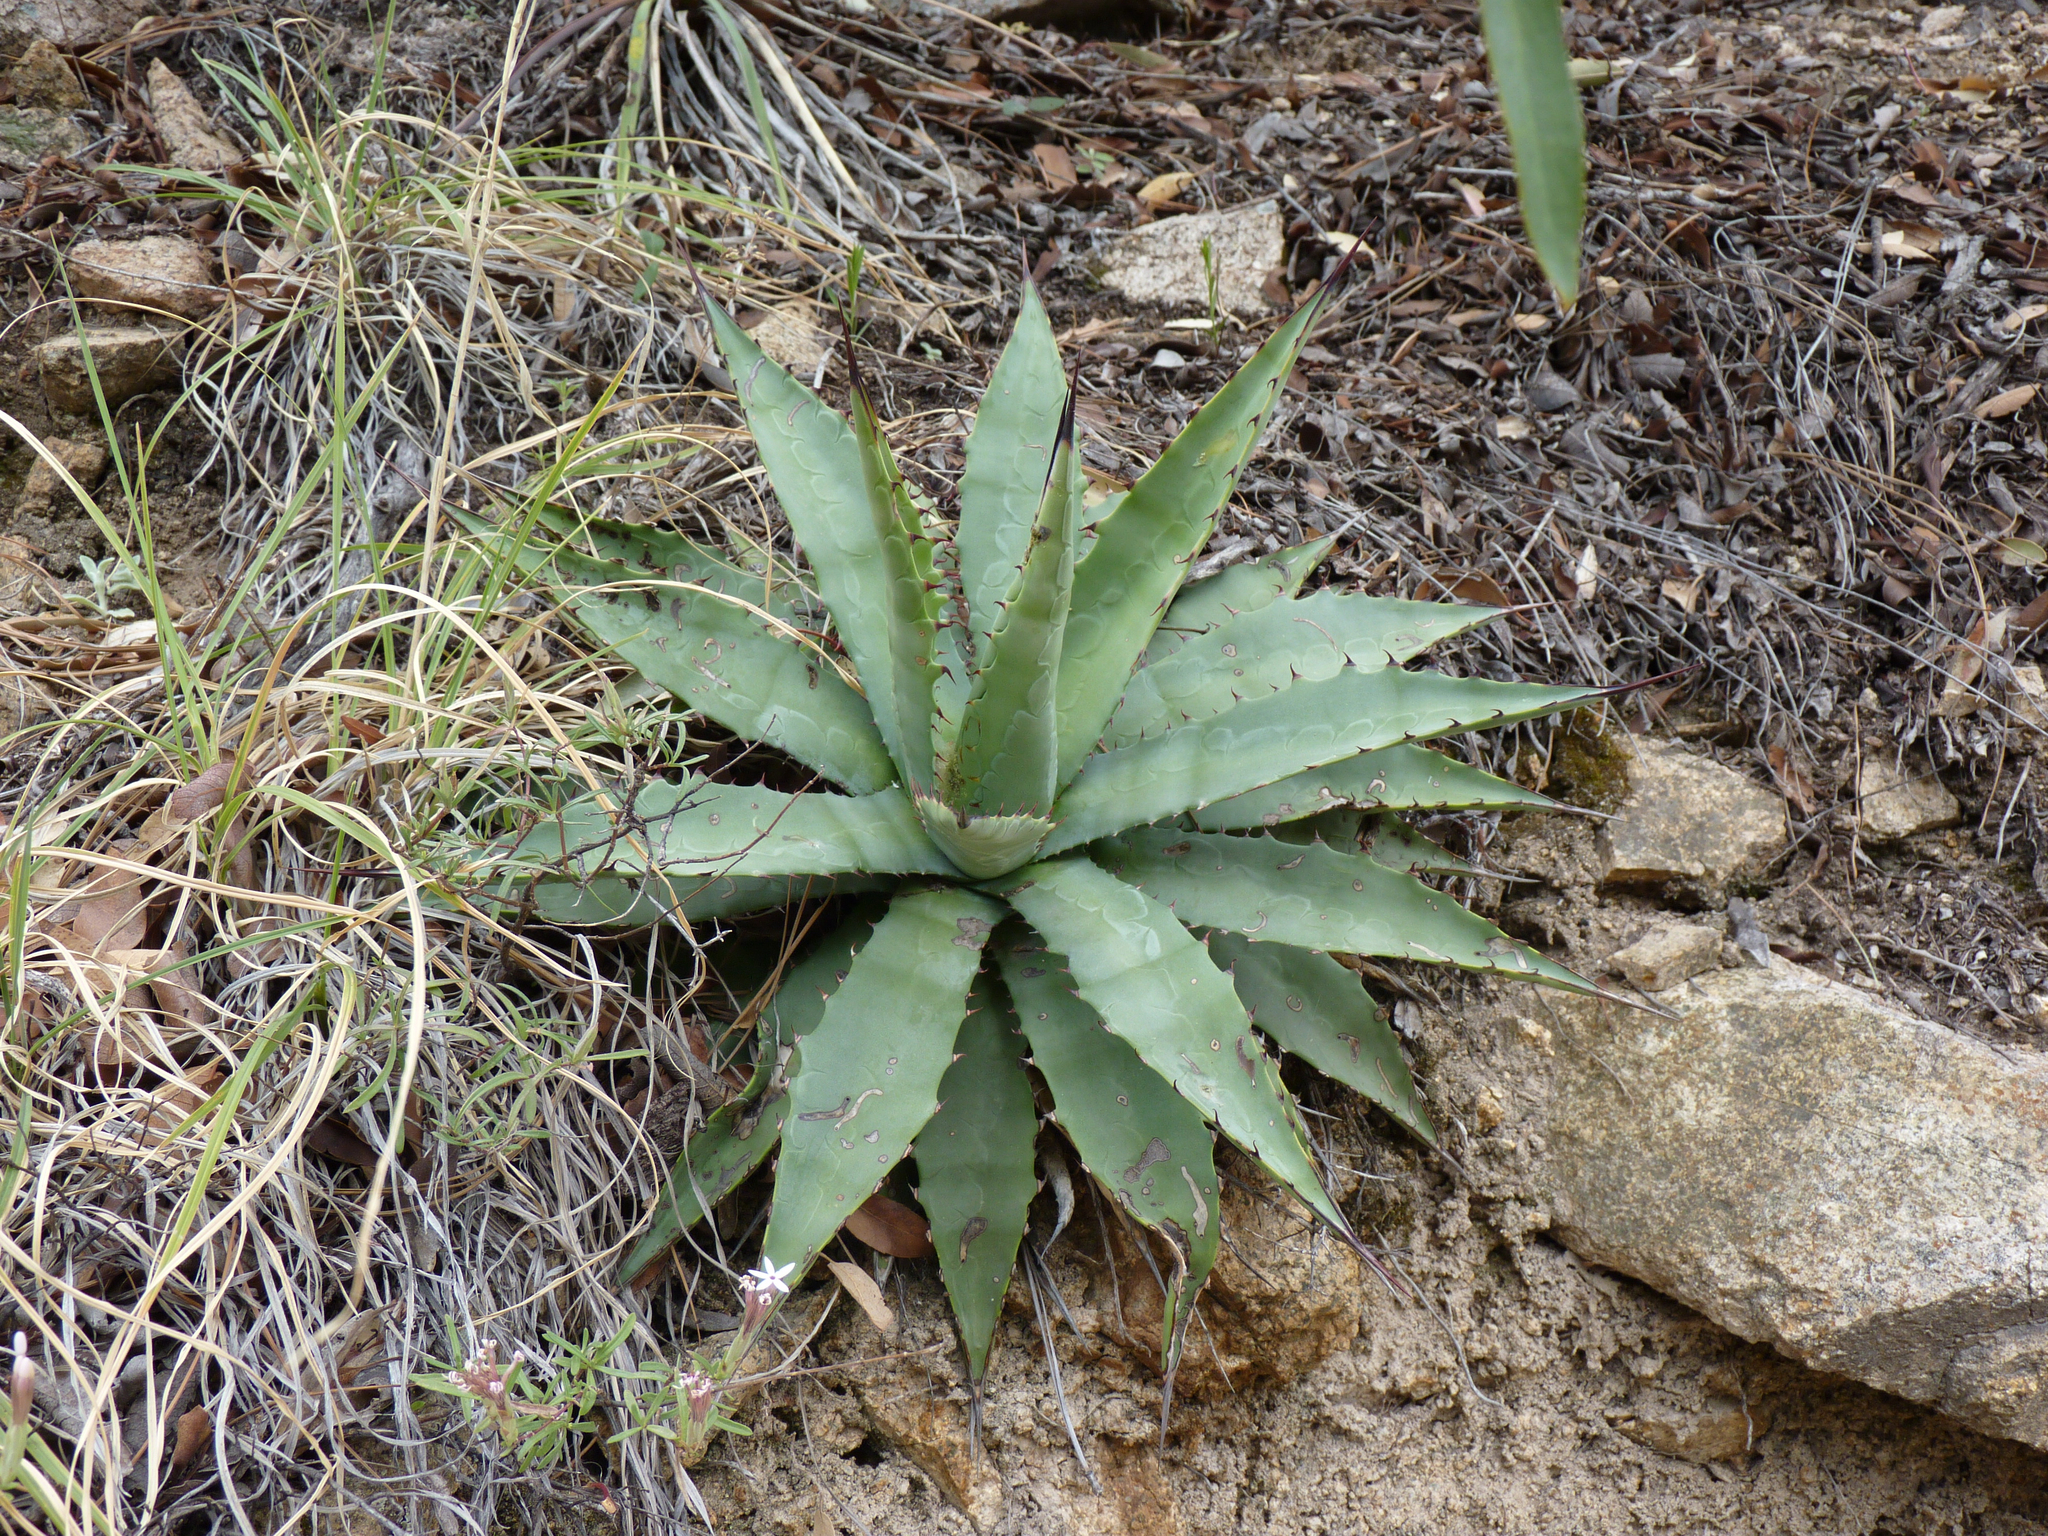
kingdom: Plantae
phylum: Tracheophyta
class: Liliopsida
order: Asparagales
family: Asparagaceae
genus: Agave
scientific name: Agave palmeri
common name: Palmer agave
